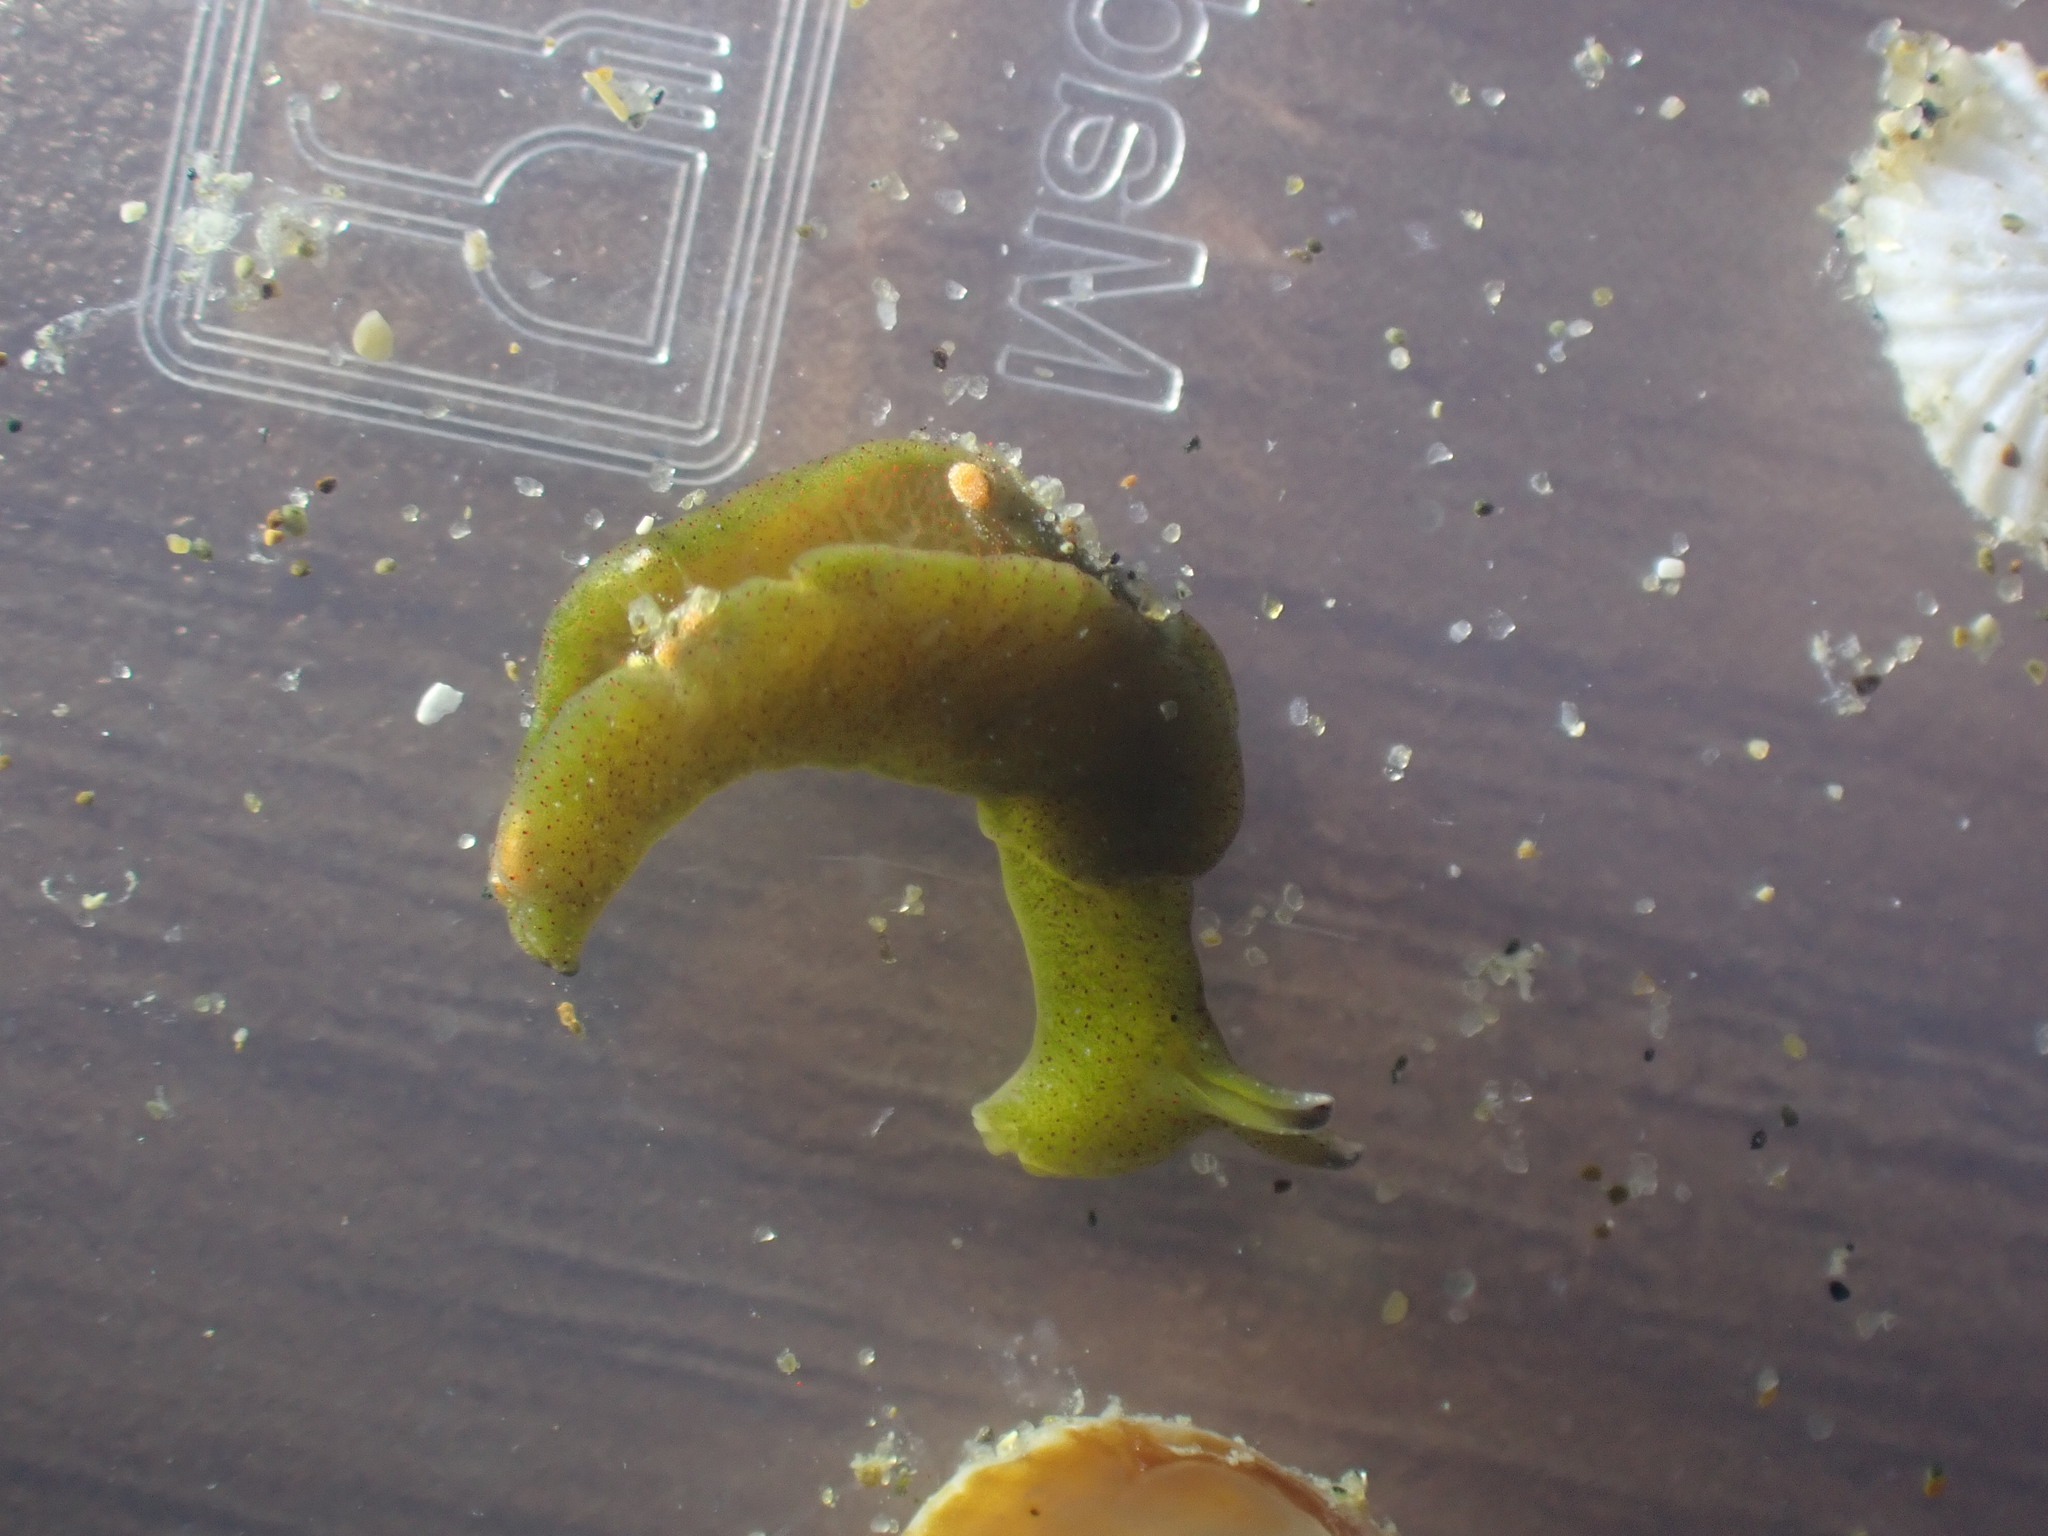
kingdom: Animalia
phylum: Mollusca
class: Gastropoda
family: Plakobranchidae
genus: Elysia
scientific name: Elysia maoria
